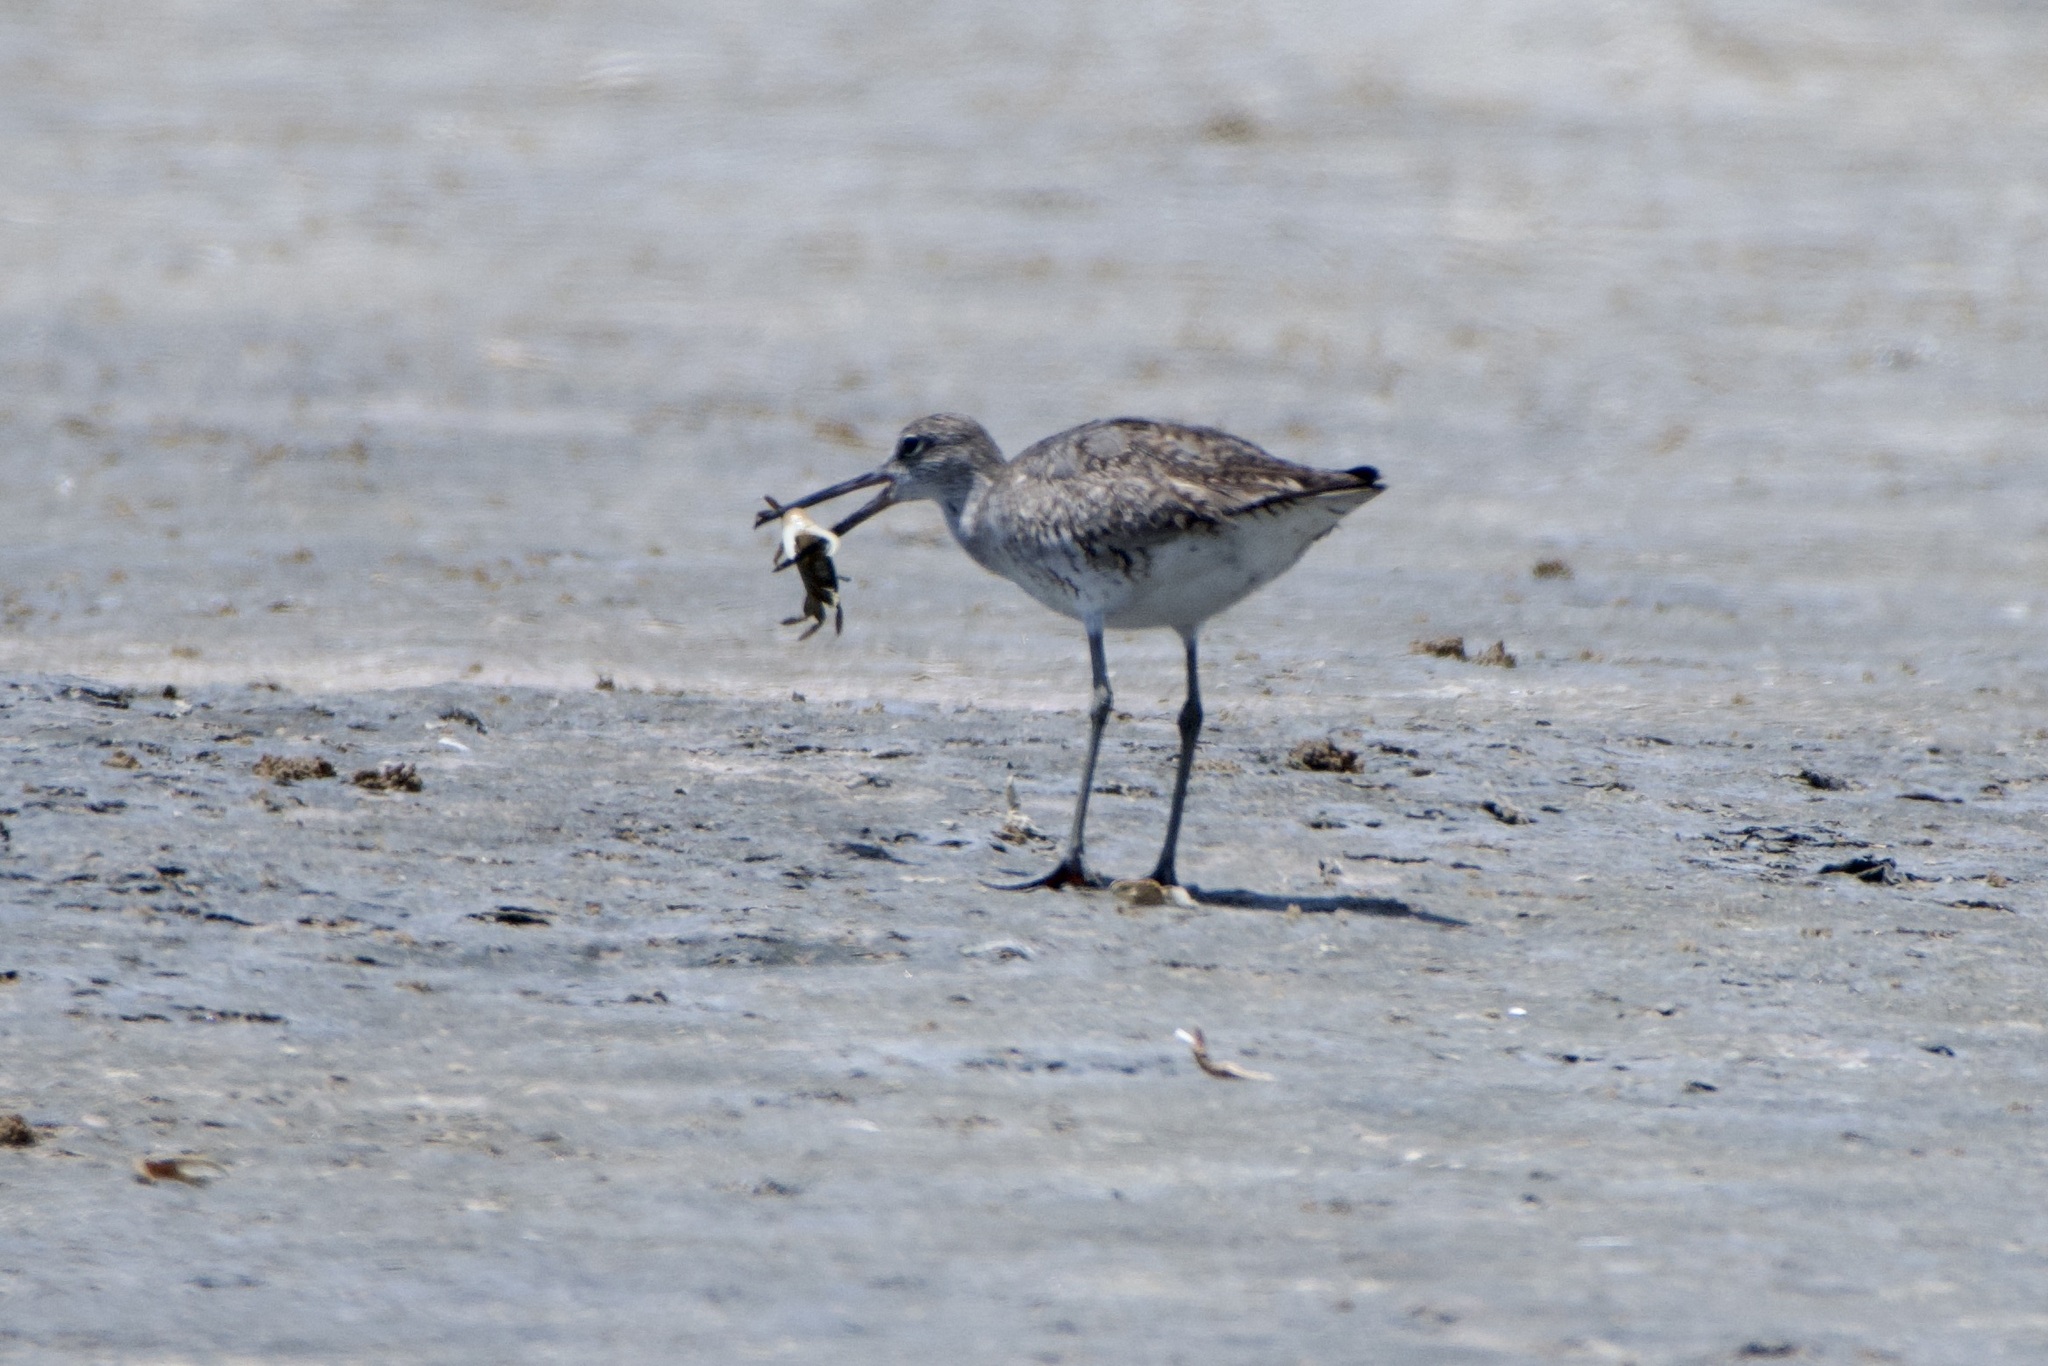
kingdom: Animalia
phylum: Chordata
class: Aves
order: Charadriiformes
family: Scolopacidae
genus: Tringa
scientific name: Tringa semipalmata
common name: Willet
